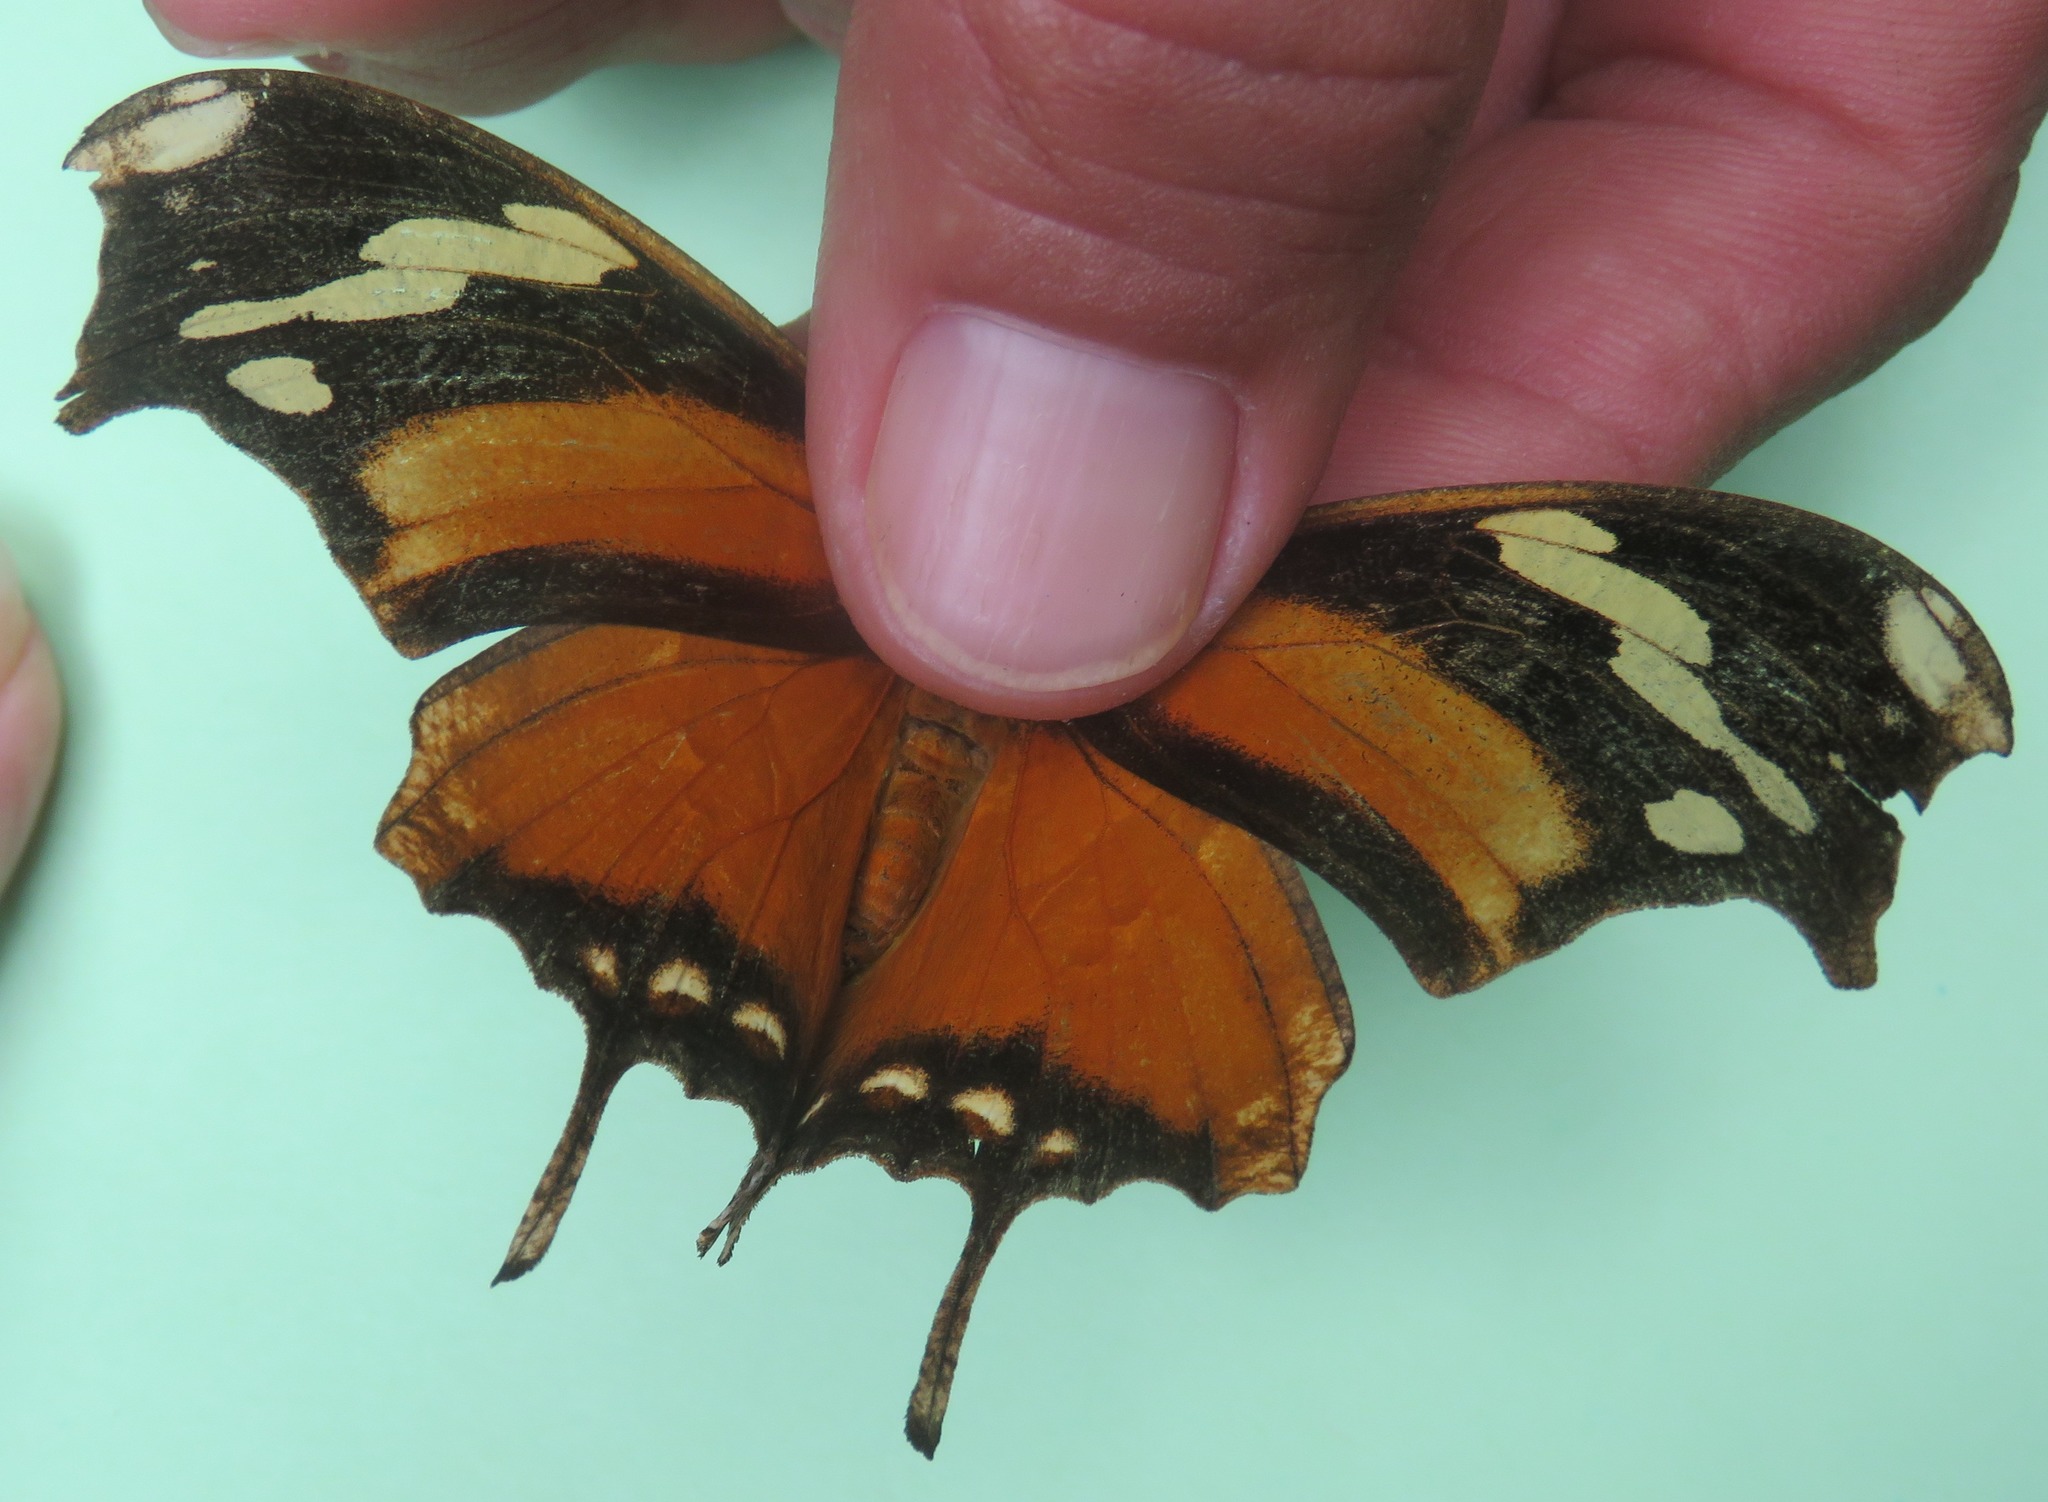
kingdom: Animalia
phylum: Arthropoda
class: Insecta
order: Lepidoptera
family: Nymphalidae
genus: Consul
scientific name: Consul fabius
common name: Tiger leafwing
